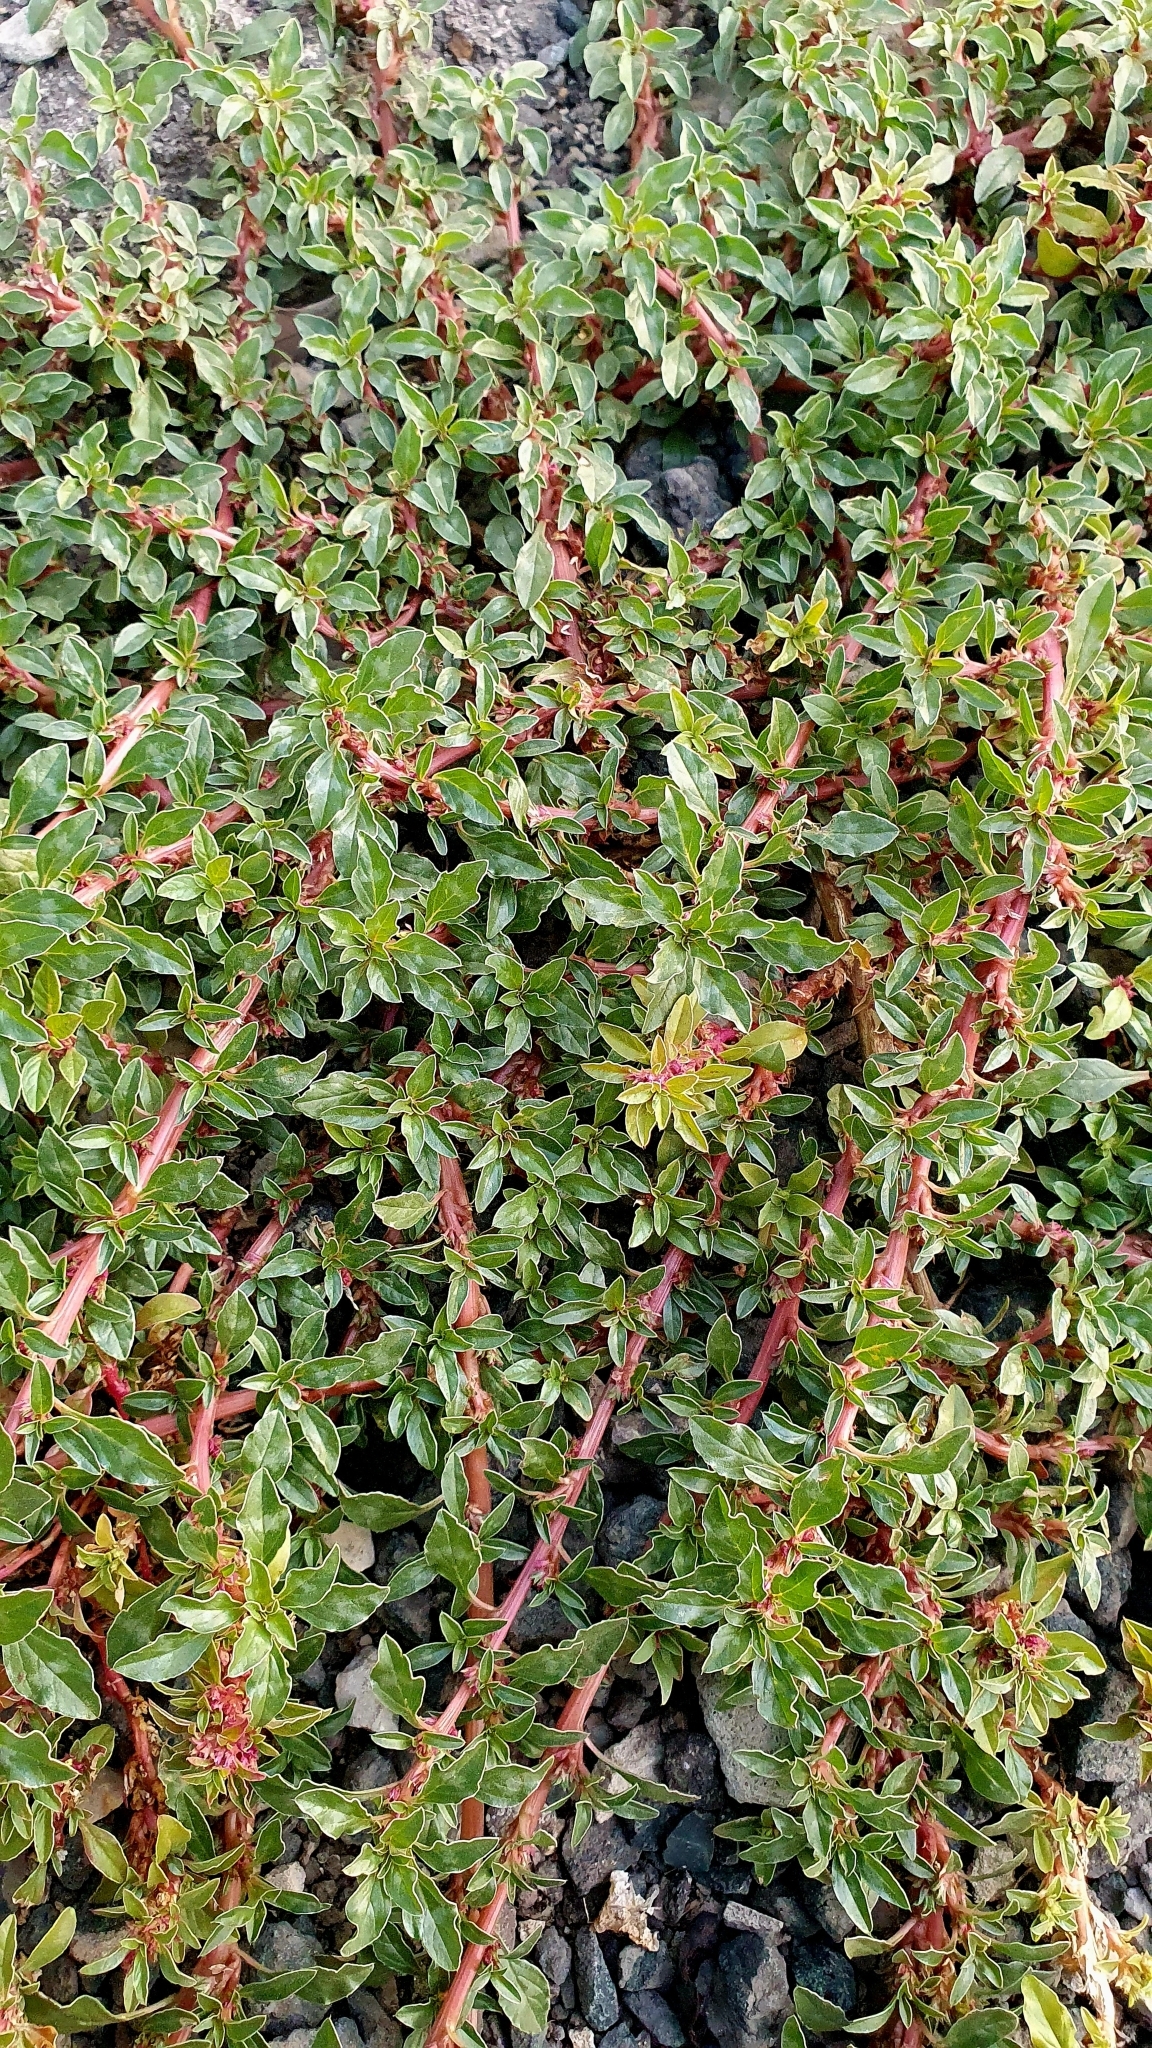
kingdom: Plantae
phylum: Tracheophyta
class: Magnoliopsida
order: Caryophyllales
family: Amaranthaceae
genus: Amaranthus
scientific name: Amaranthus blitoides
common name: Prostrate pigweed
